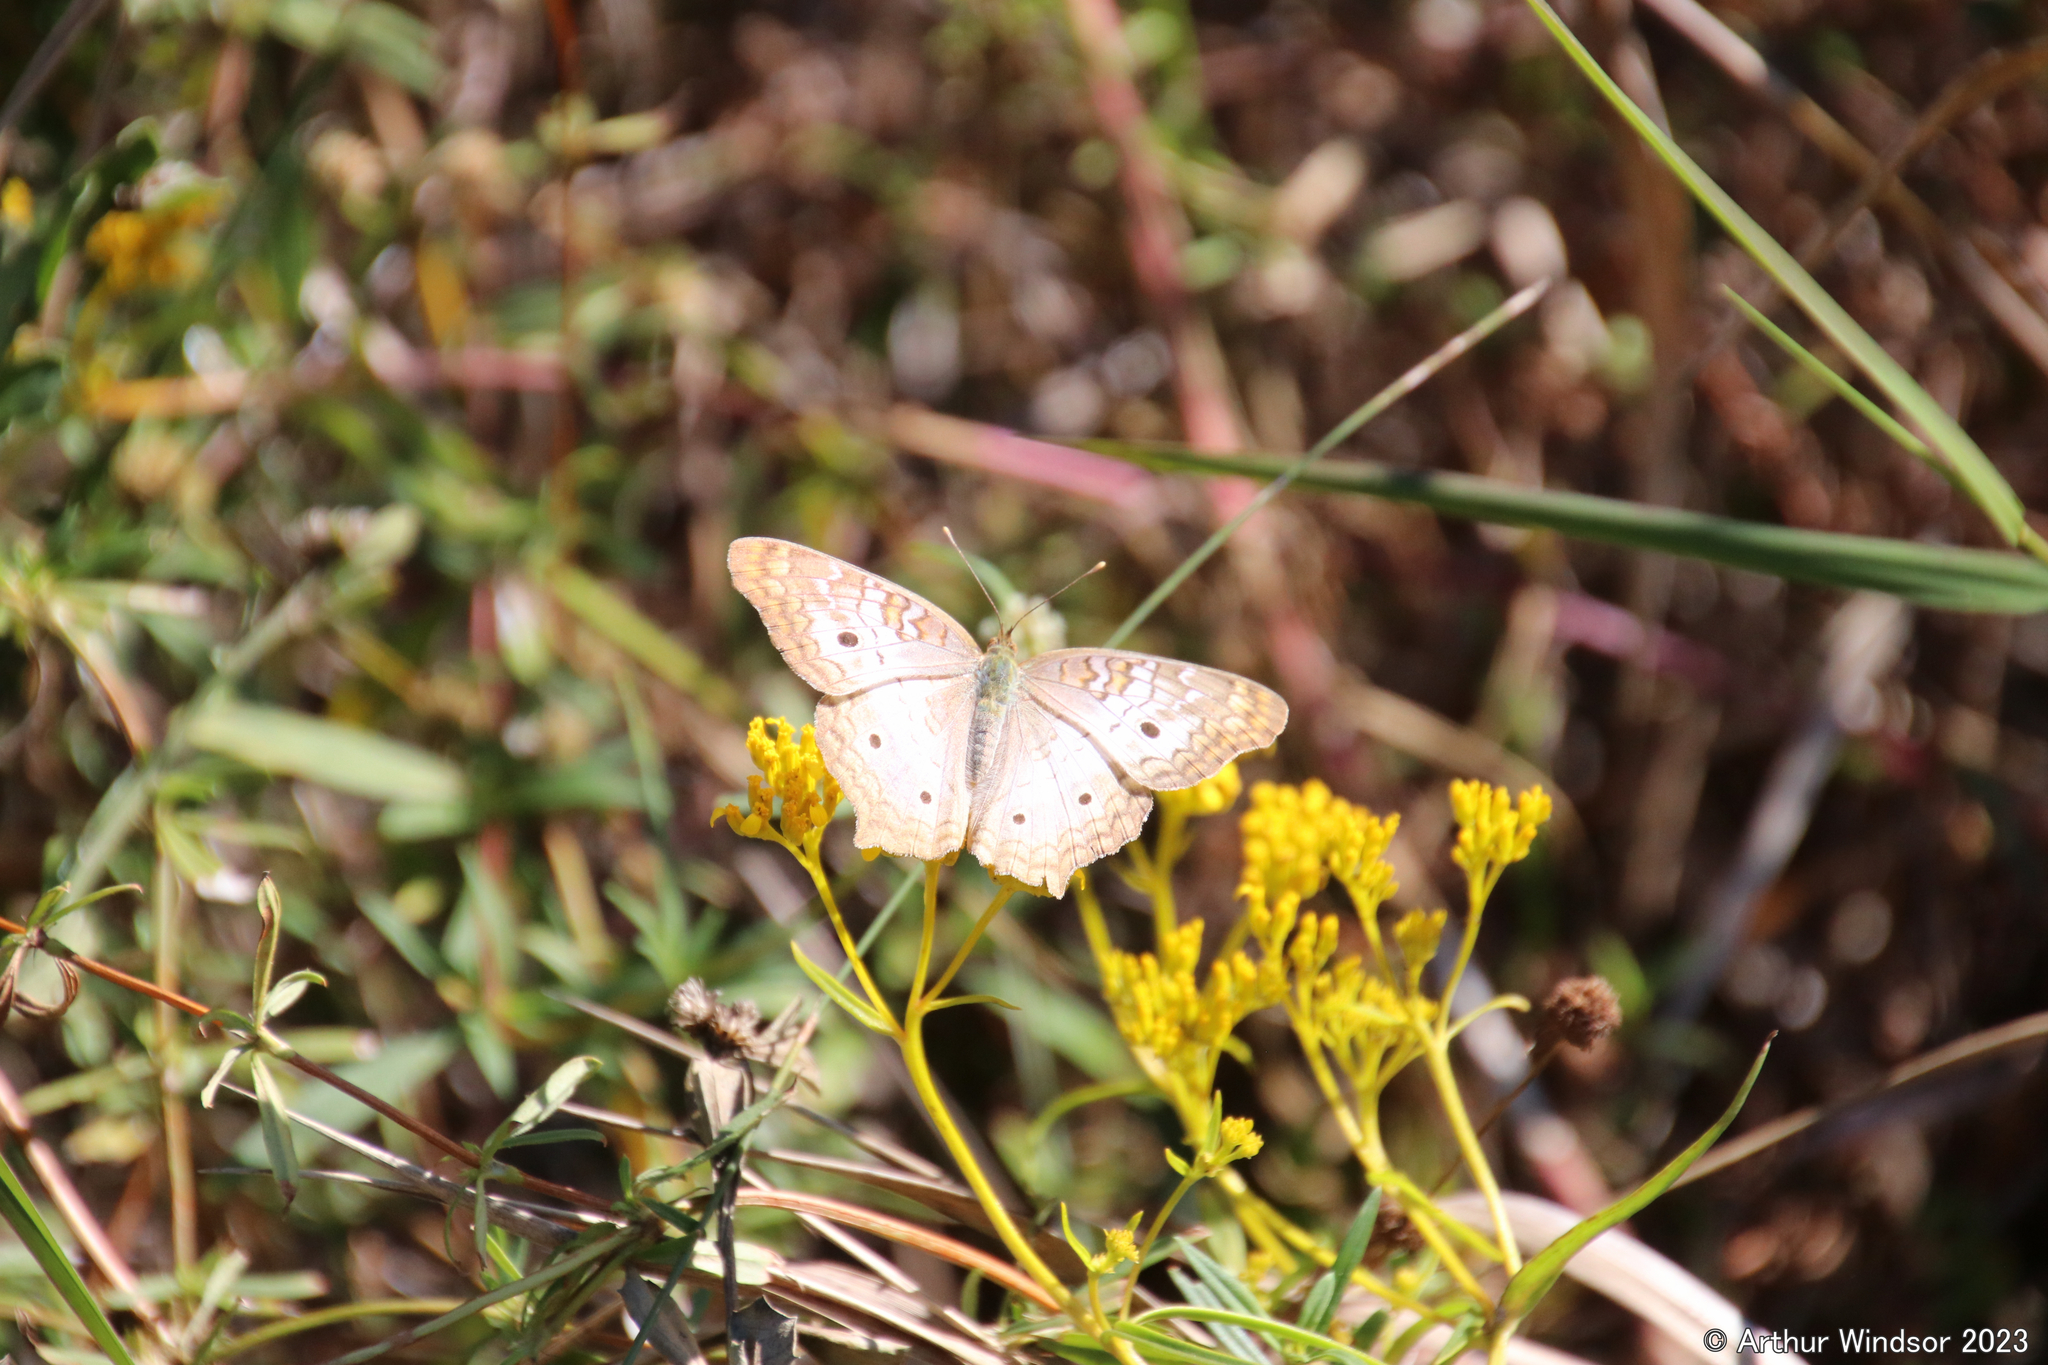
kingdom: Animalia
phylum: Arthropoda
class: Insecta
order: Lepidoptera
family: Nymphalidae
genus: Anartia
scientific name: Anartia jatrophae
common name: White peacock
